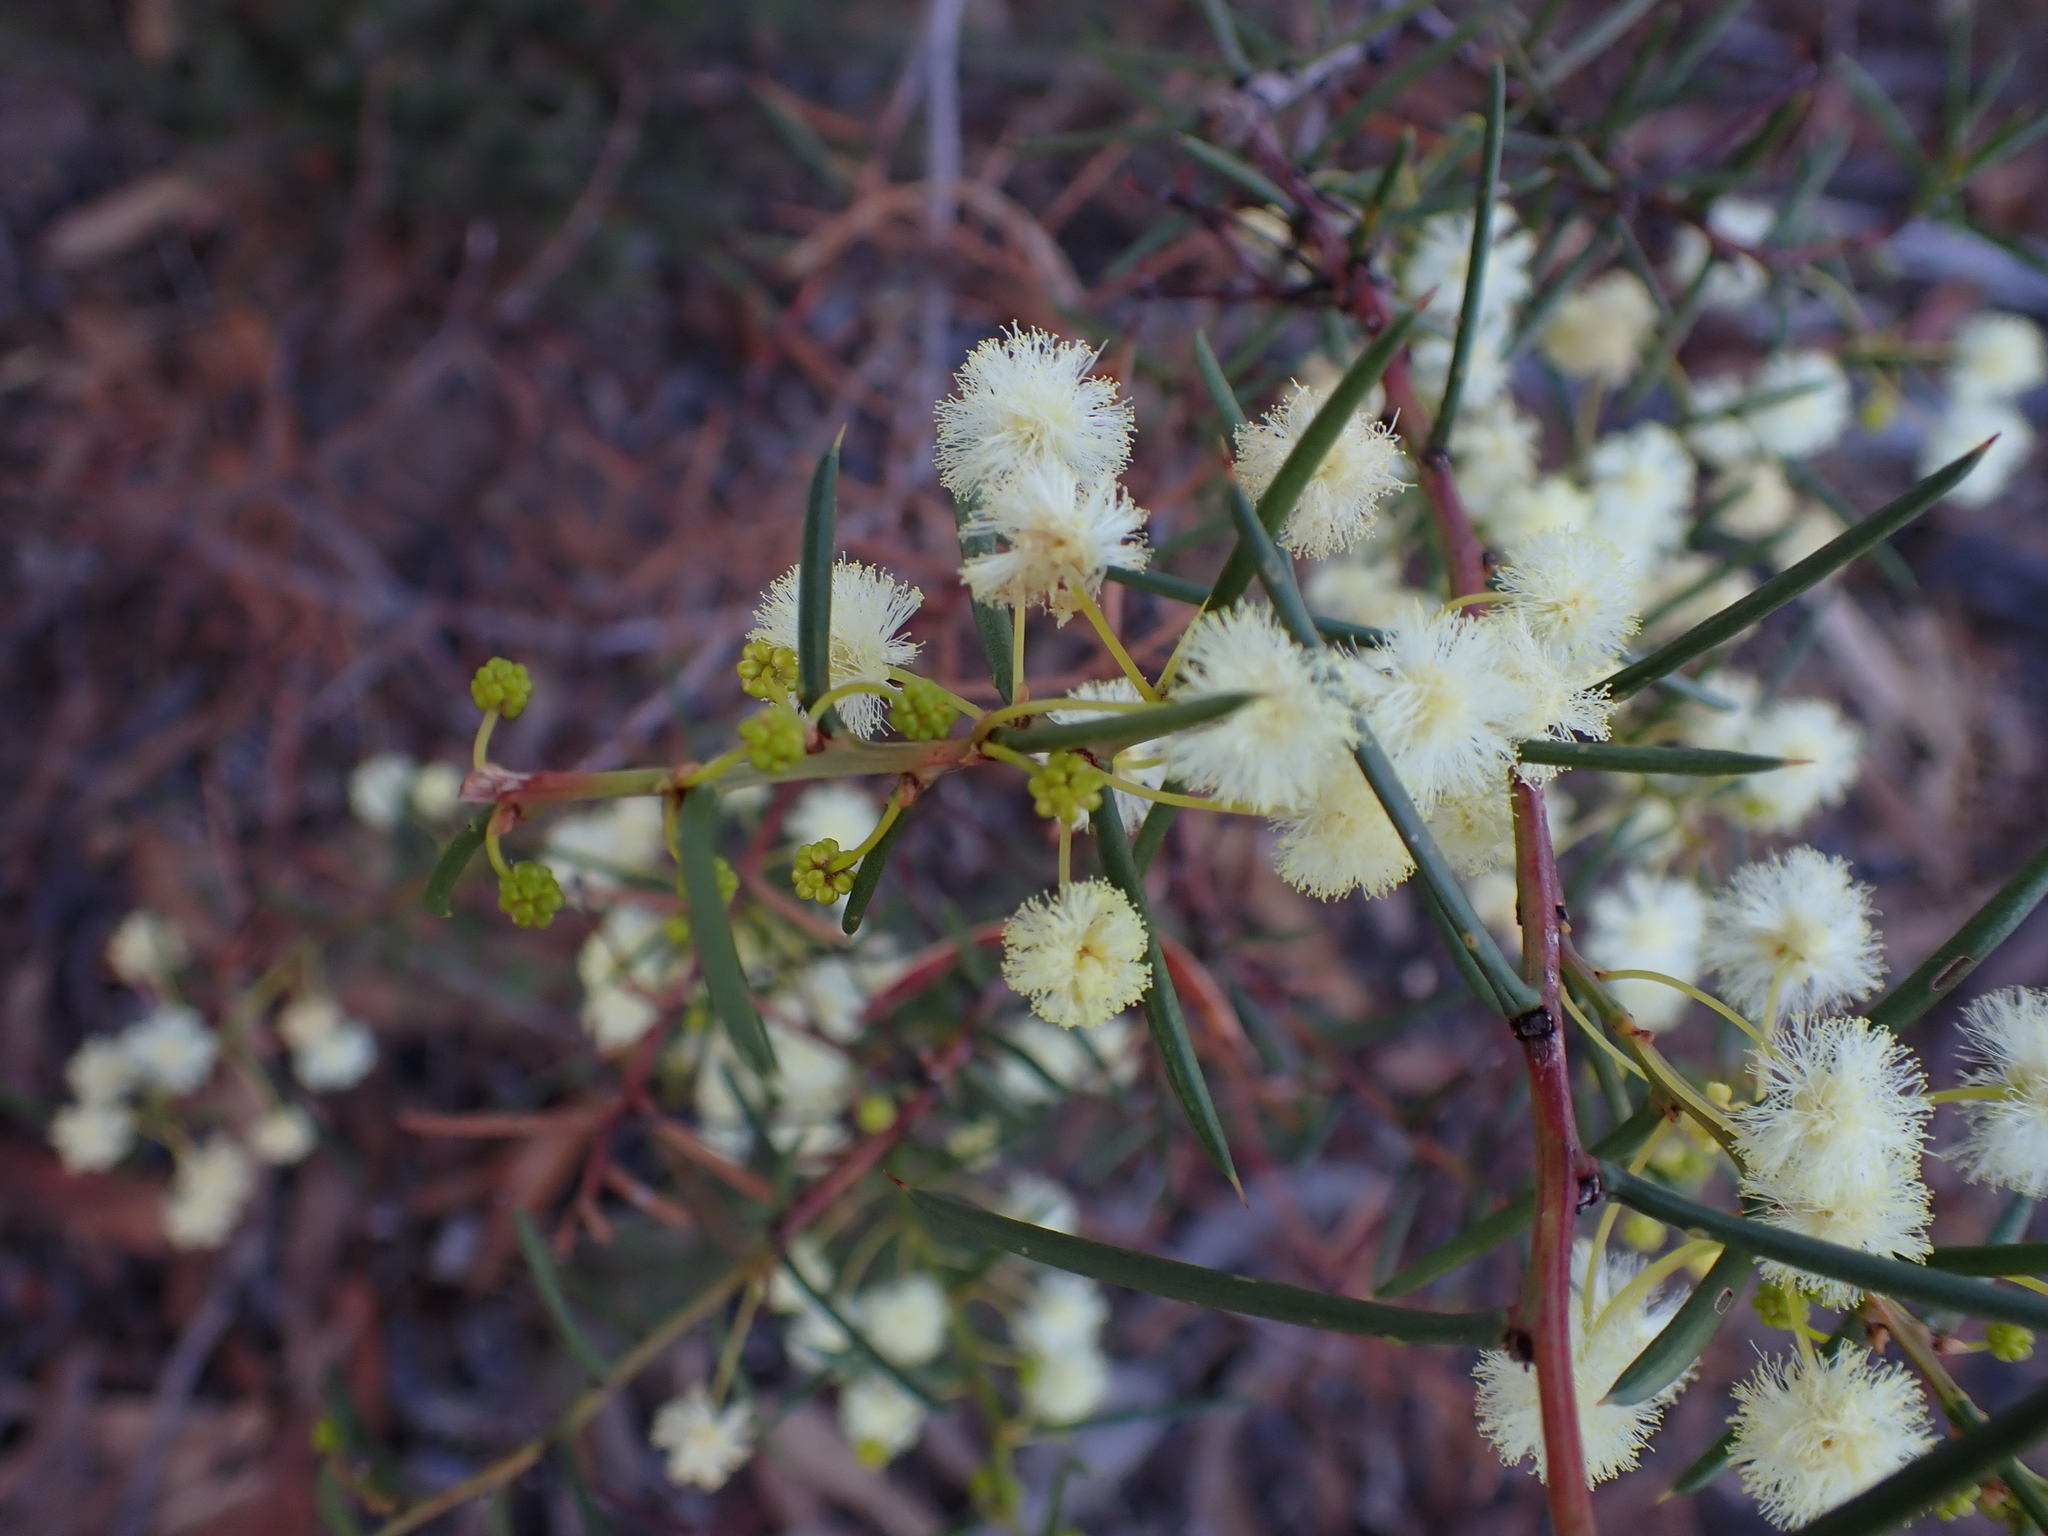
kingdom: Plantae
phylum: Tracheophyta
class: Magnoliopsida
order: Fabales
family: Fabaceae
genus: Acacia
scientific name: Acacia genistifolia
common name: Early wattle
